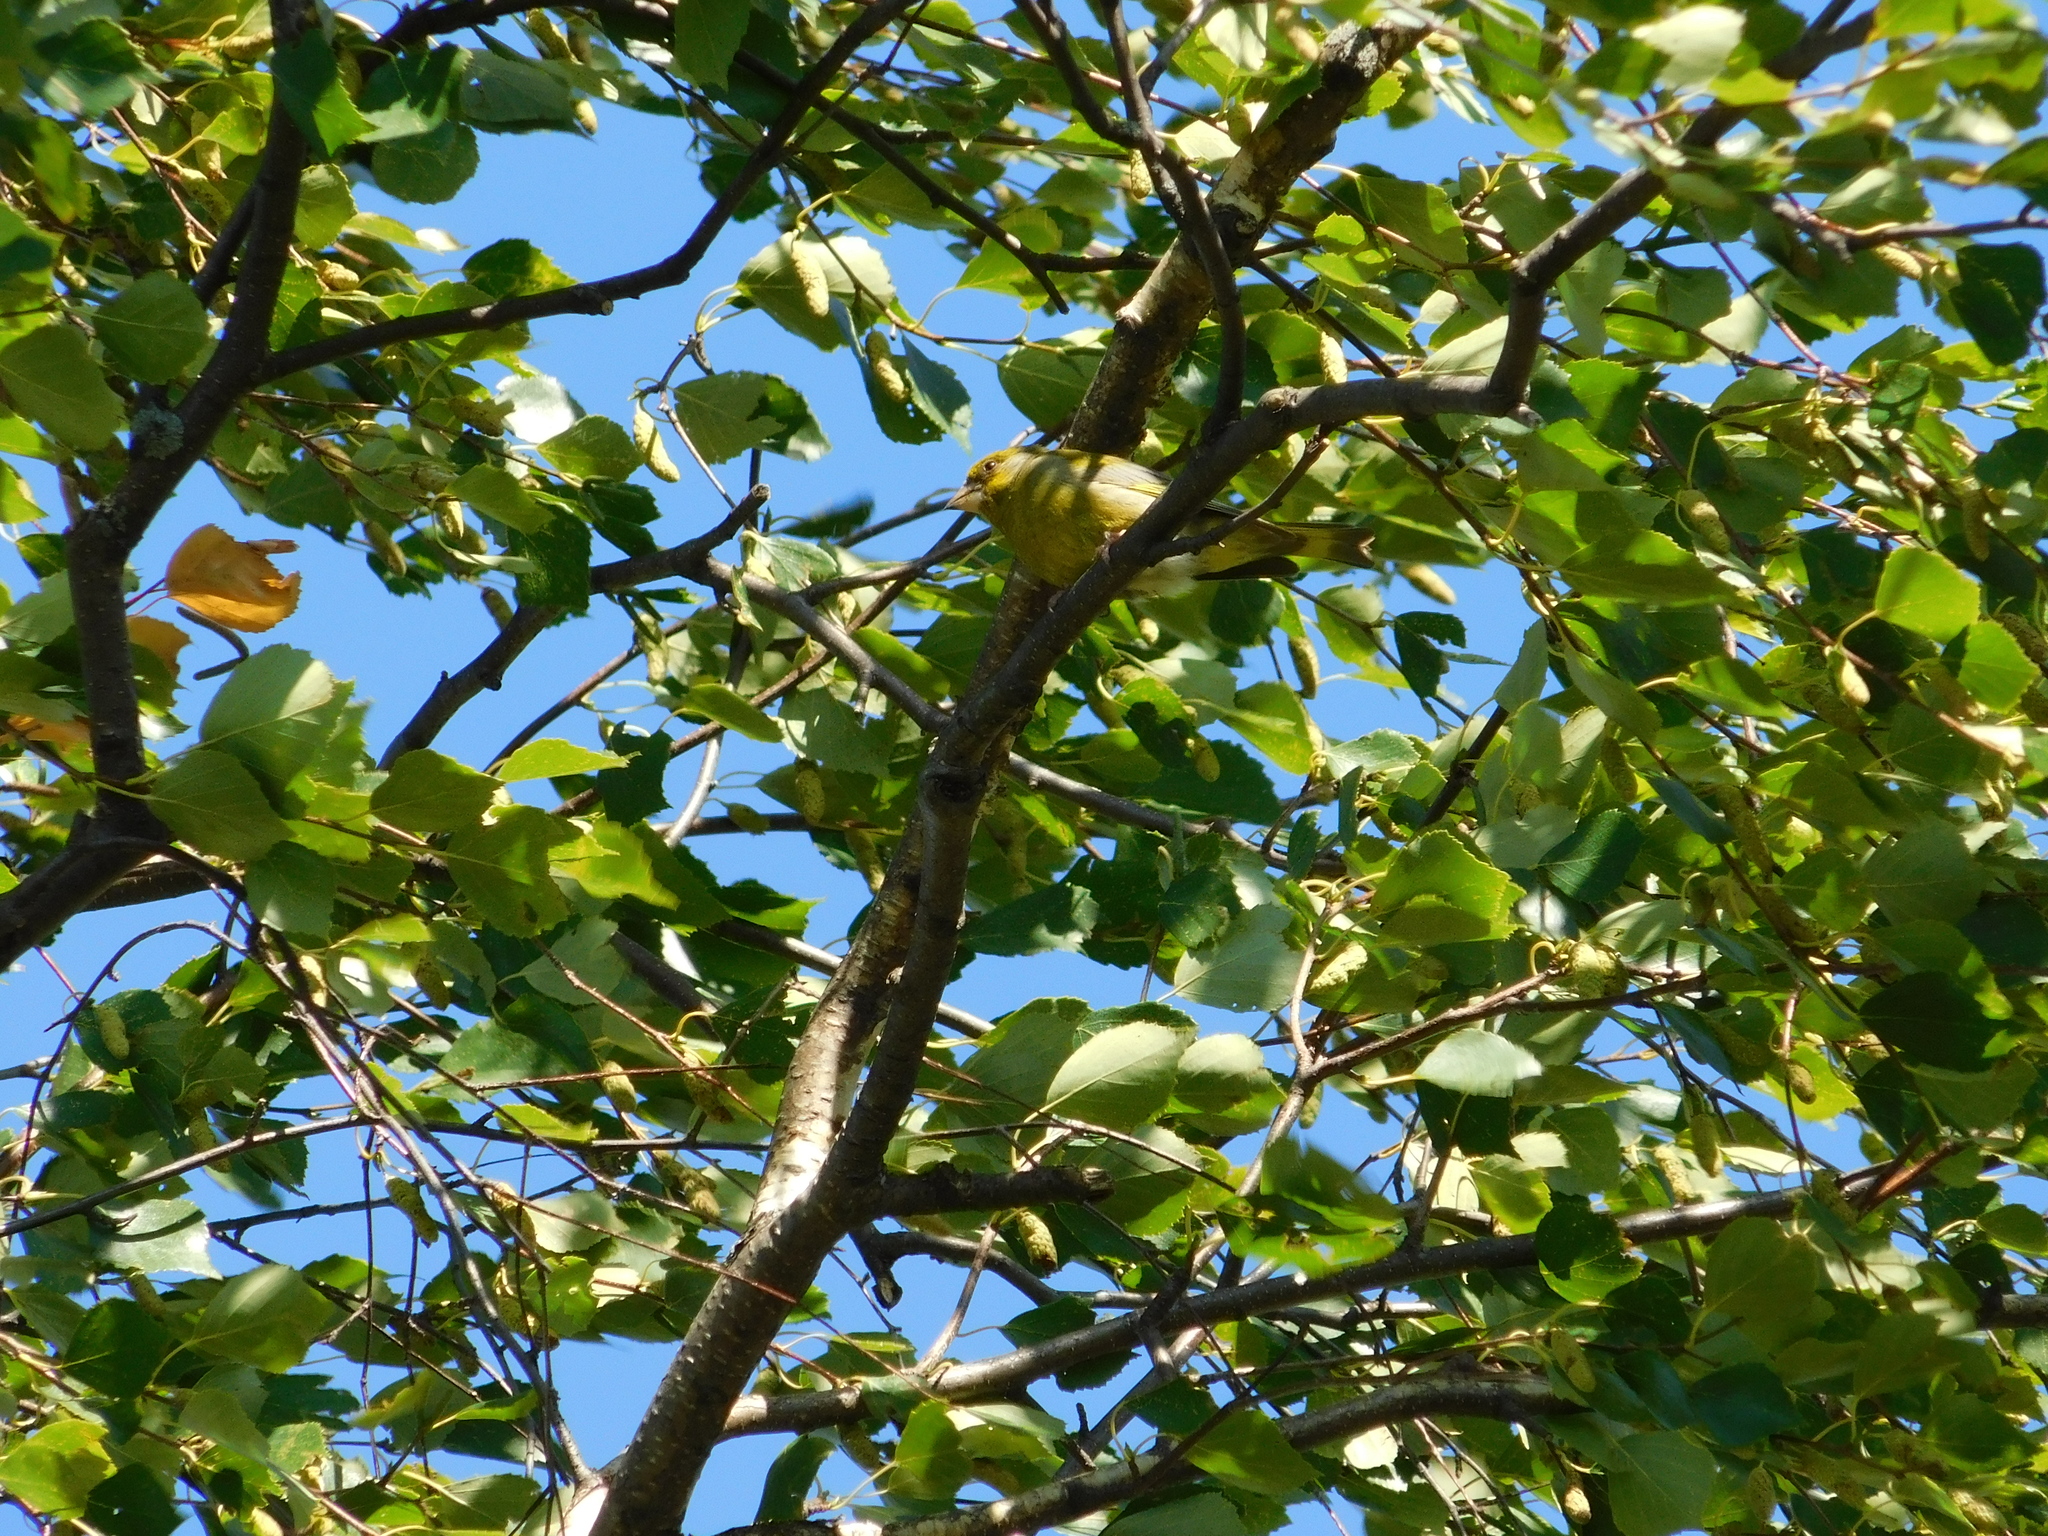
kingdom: Plantae
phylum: Tracheophyta
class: Liliopsida
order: Poales
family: Poaceae
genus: Chloris
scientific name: Chloris chloris
